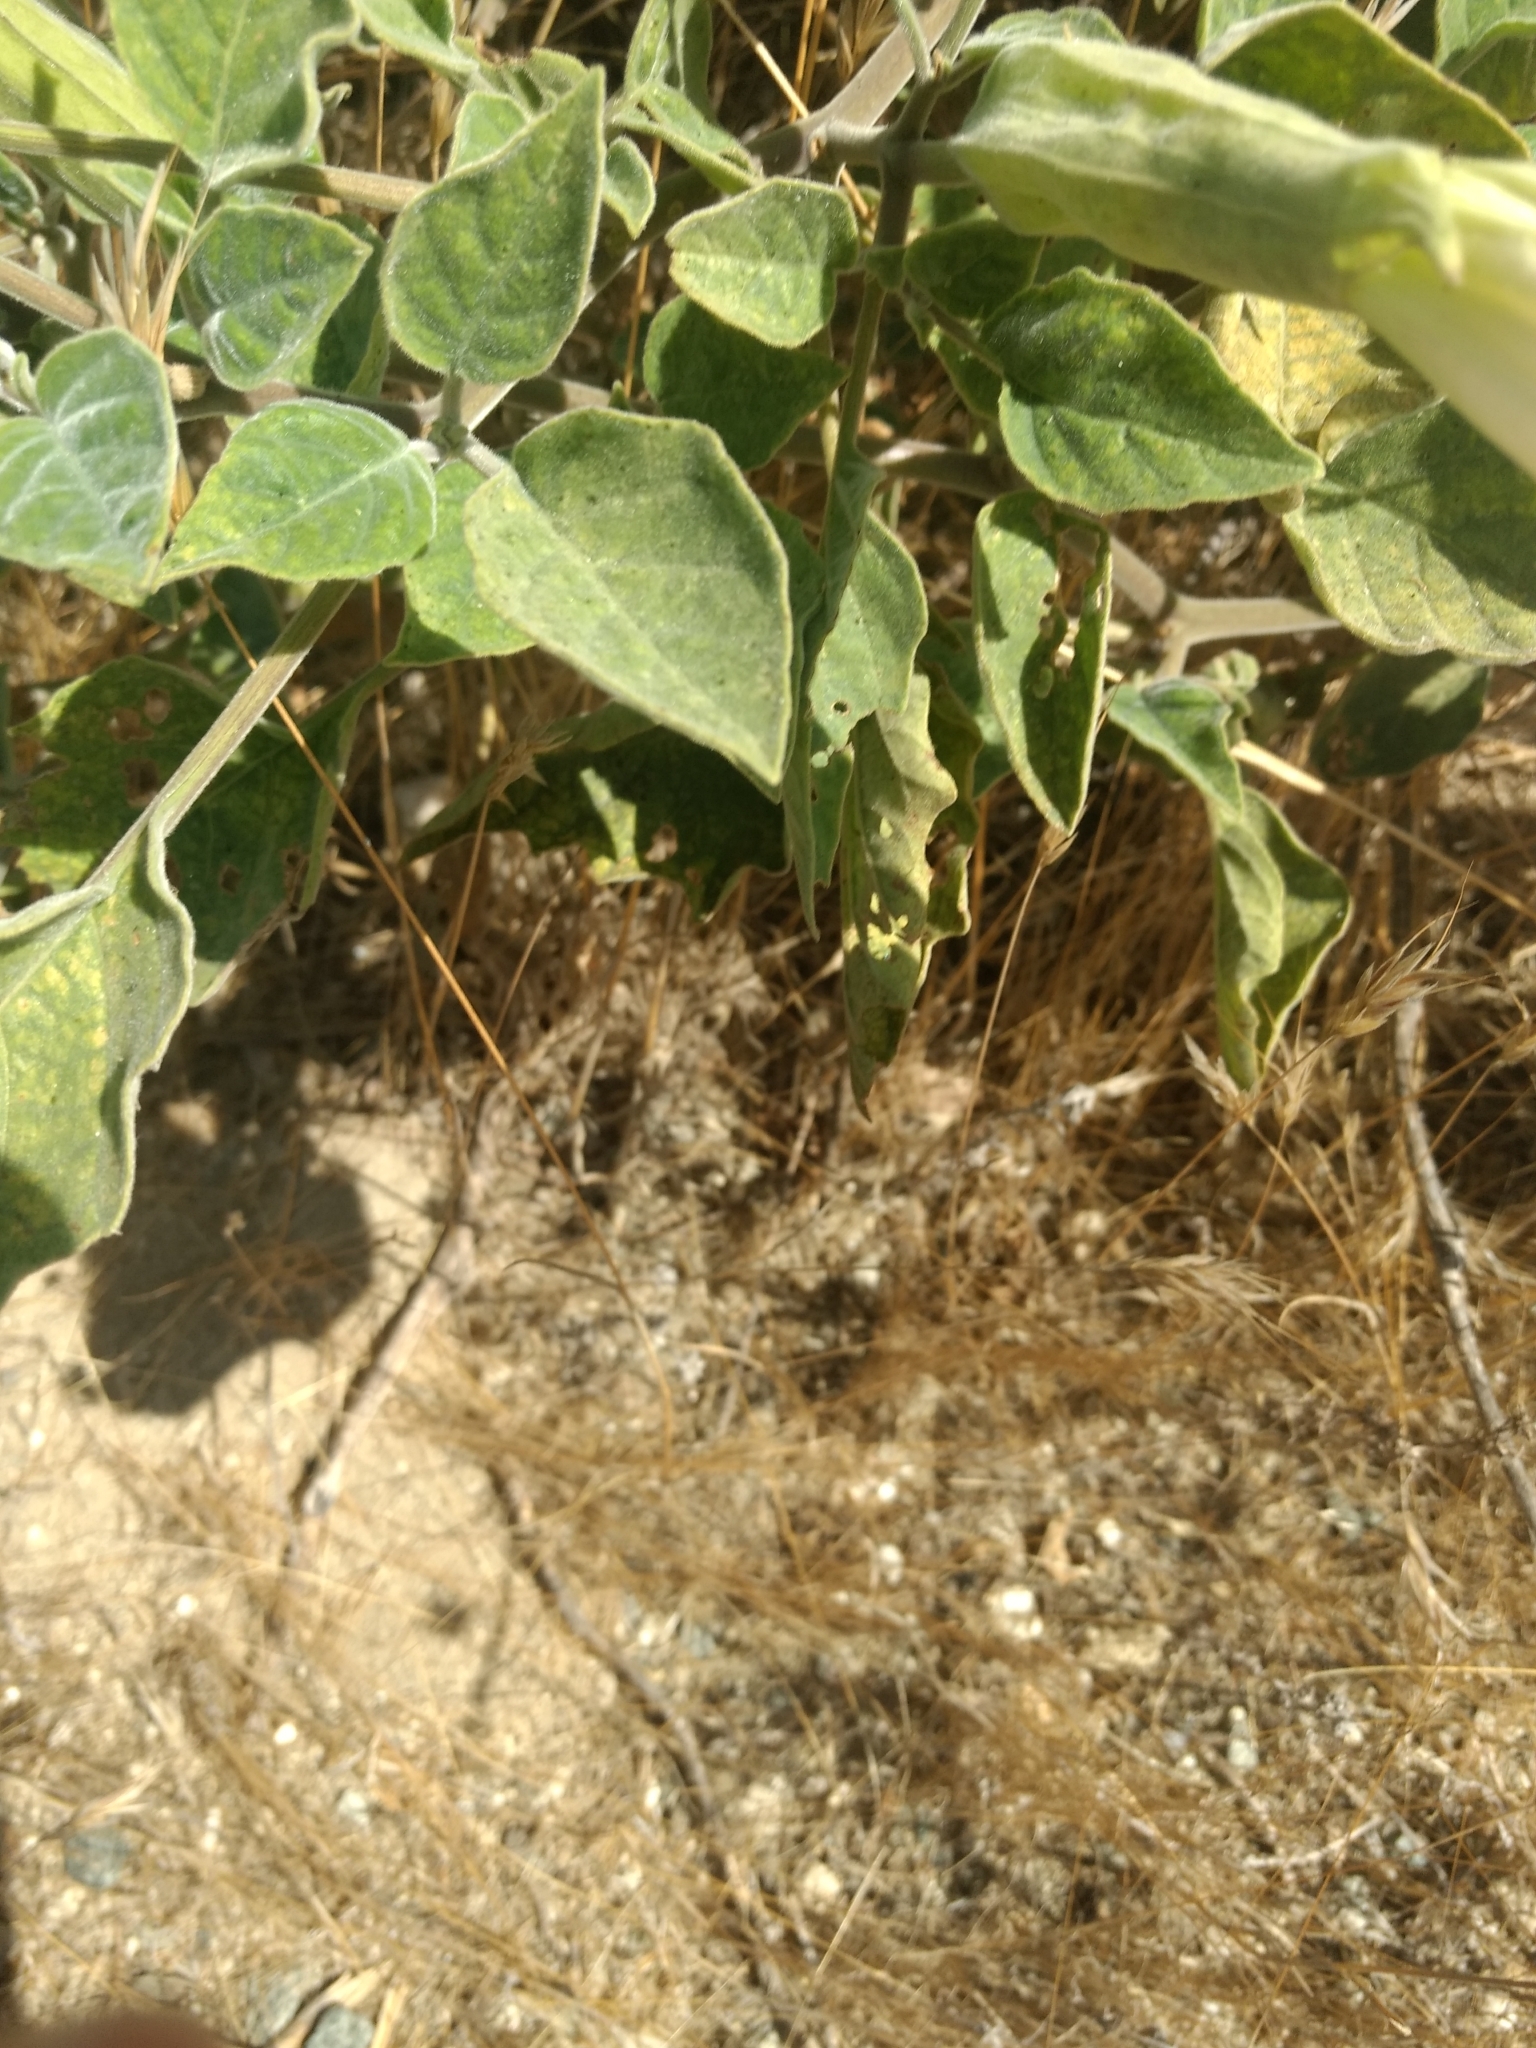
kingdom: Plantae
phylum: Tracheophyta
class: Magnoliopsida
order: Solanales
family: Solanaceae
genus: Datura
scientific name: Datura wrightii
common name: Sacred thorn-apple
